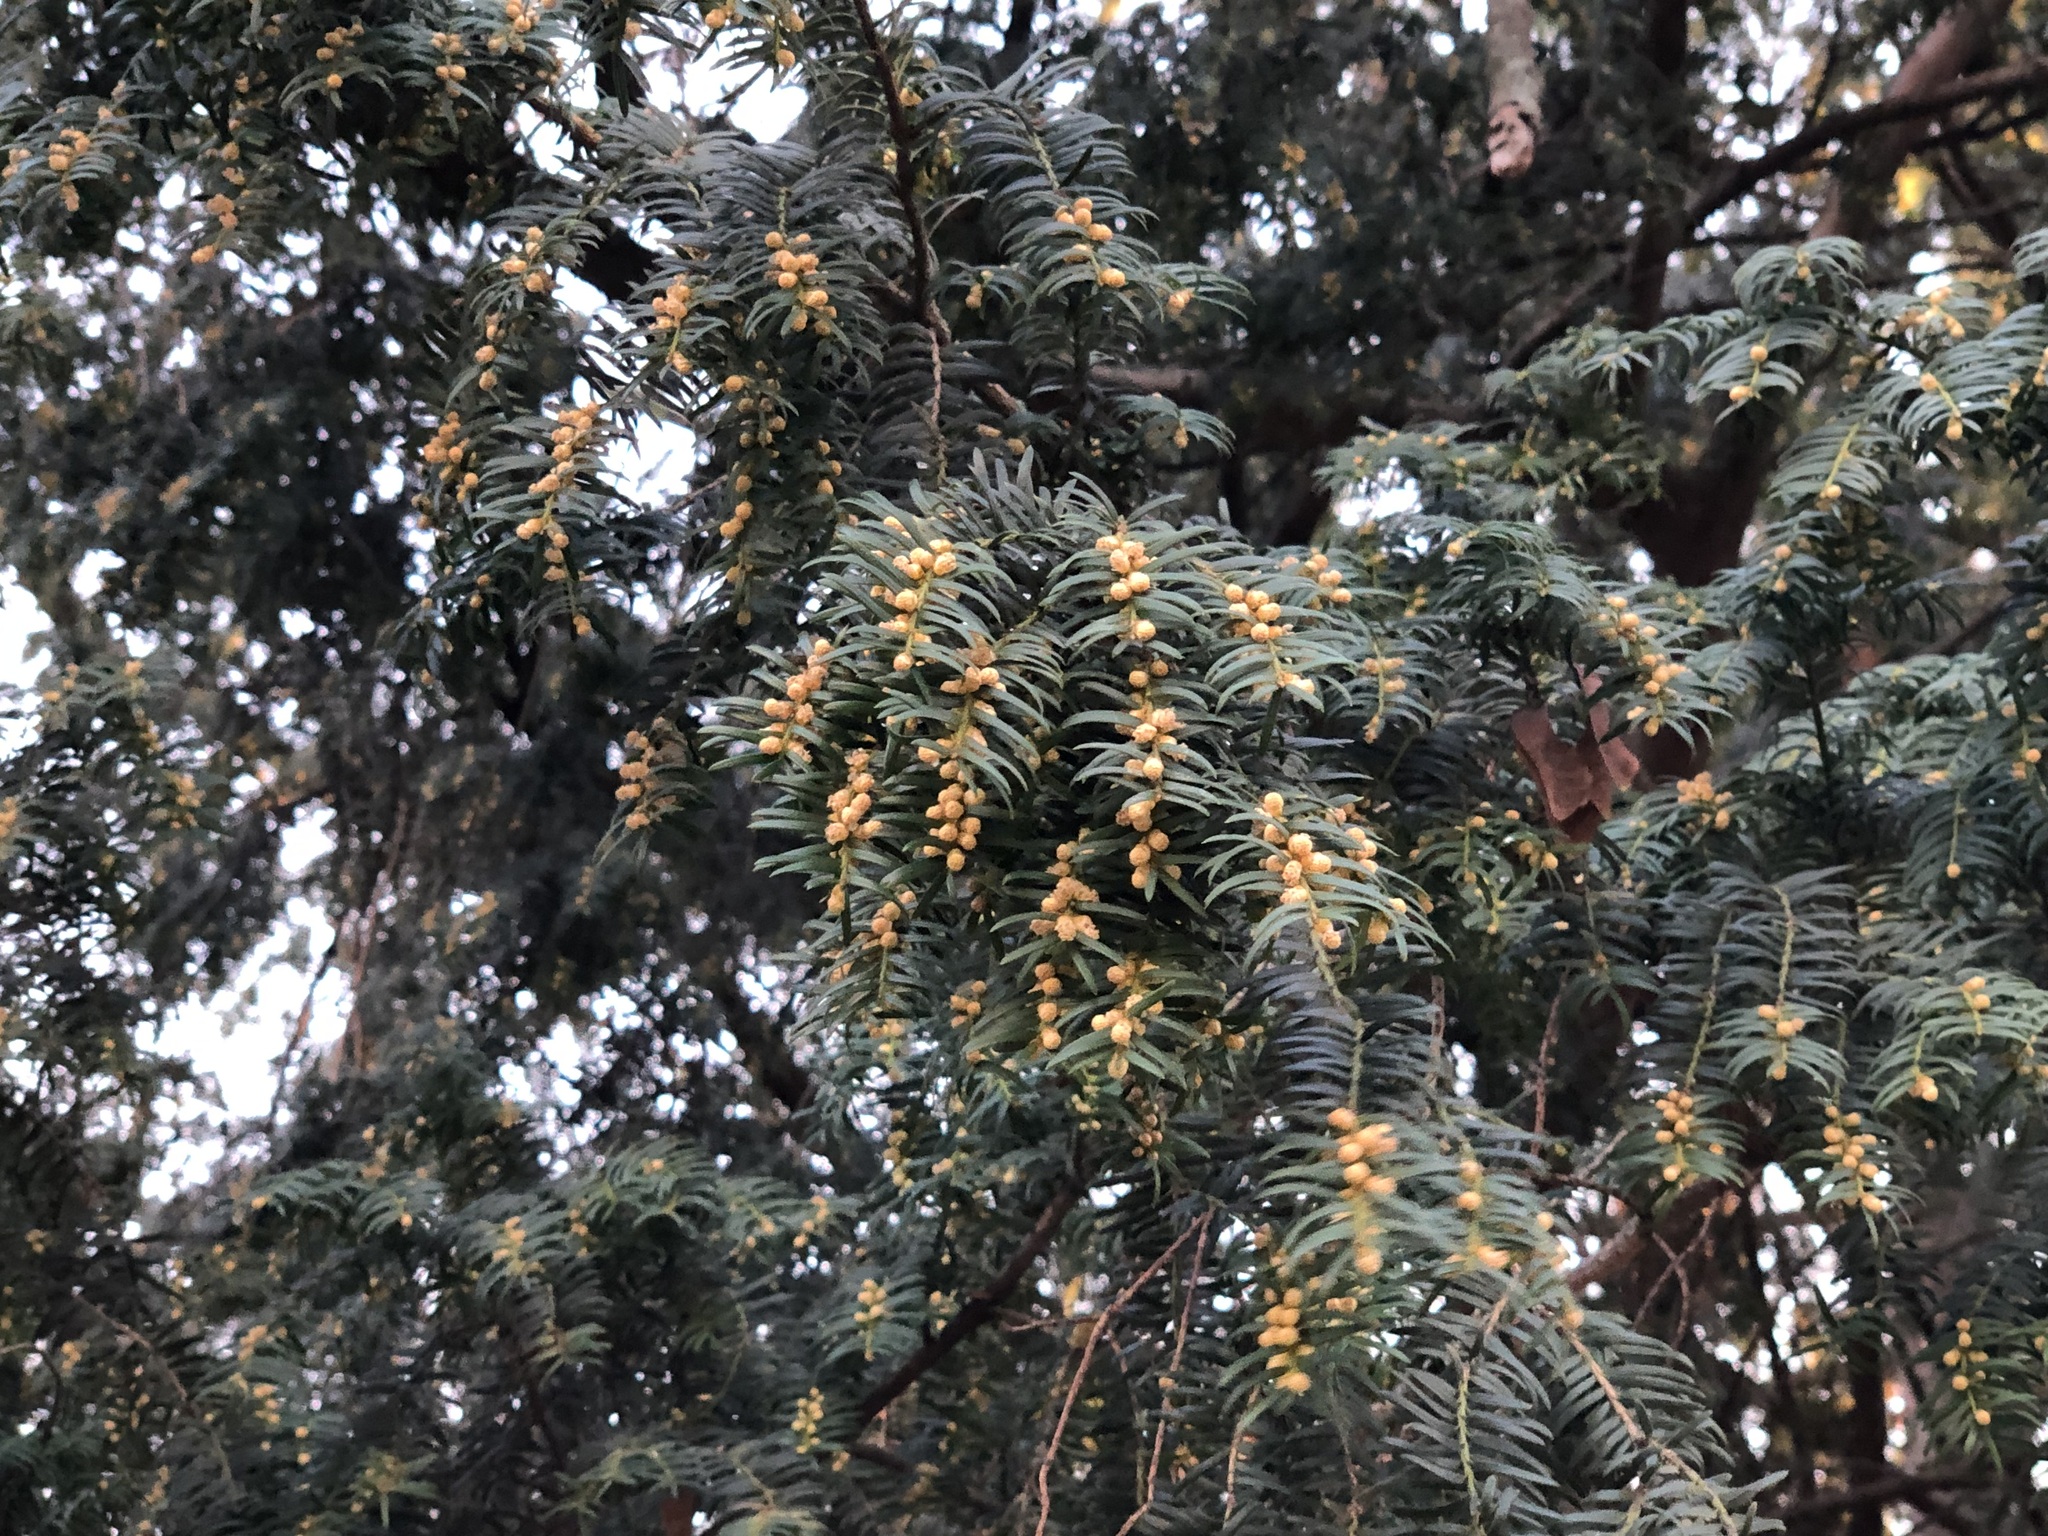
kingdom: Plantae
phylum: Tracheophyta
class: Pinopsida
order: Pinales
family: Taxaceae
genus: Taxus
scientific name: Taxus baccata
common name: Yew
